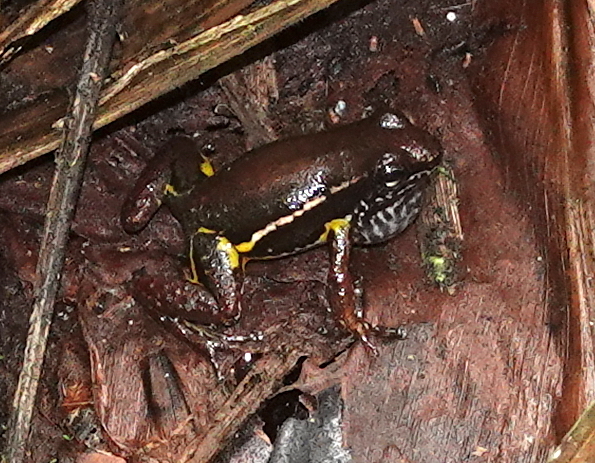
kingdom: Animalia
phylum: Chordata
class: Amphibia
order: Anura
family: Dendrobatidae
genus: Leucostethus
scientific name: Leucostethus fraterdanieli
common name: Santa rita rocket frog
